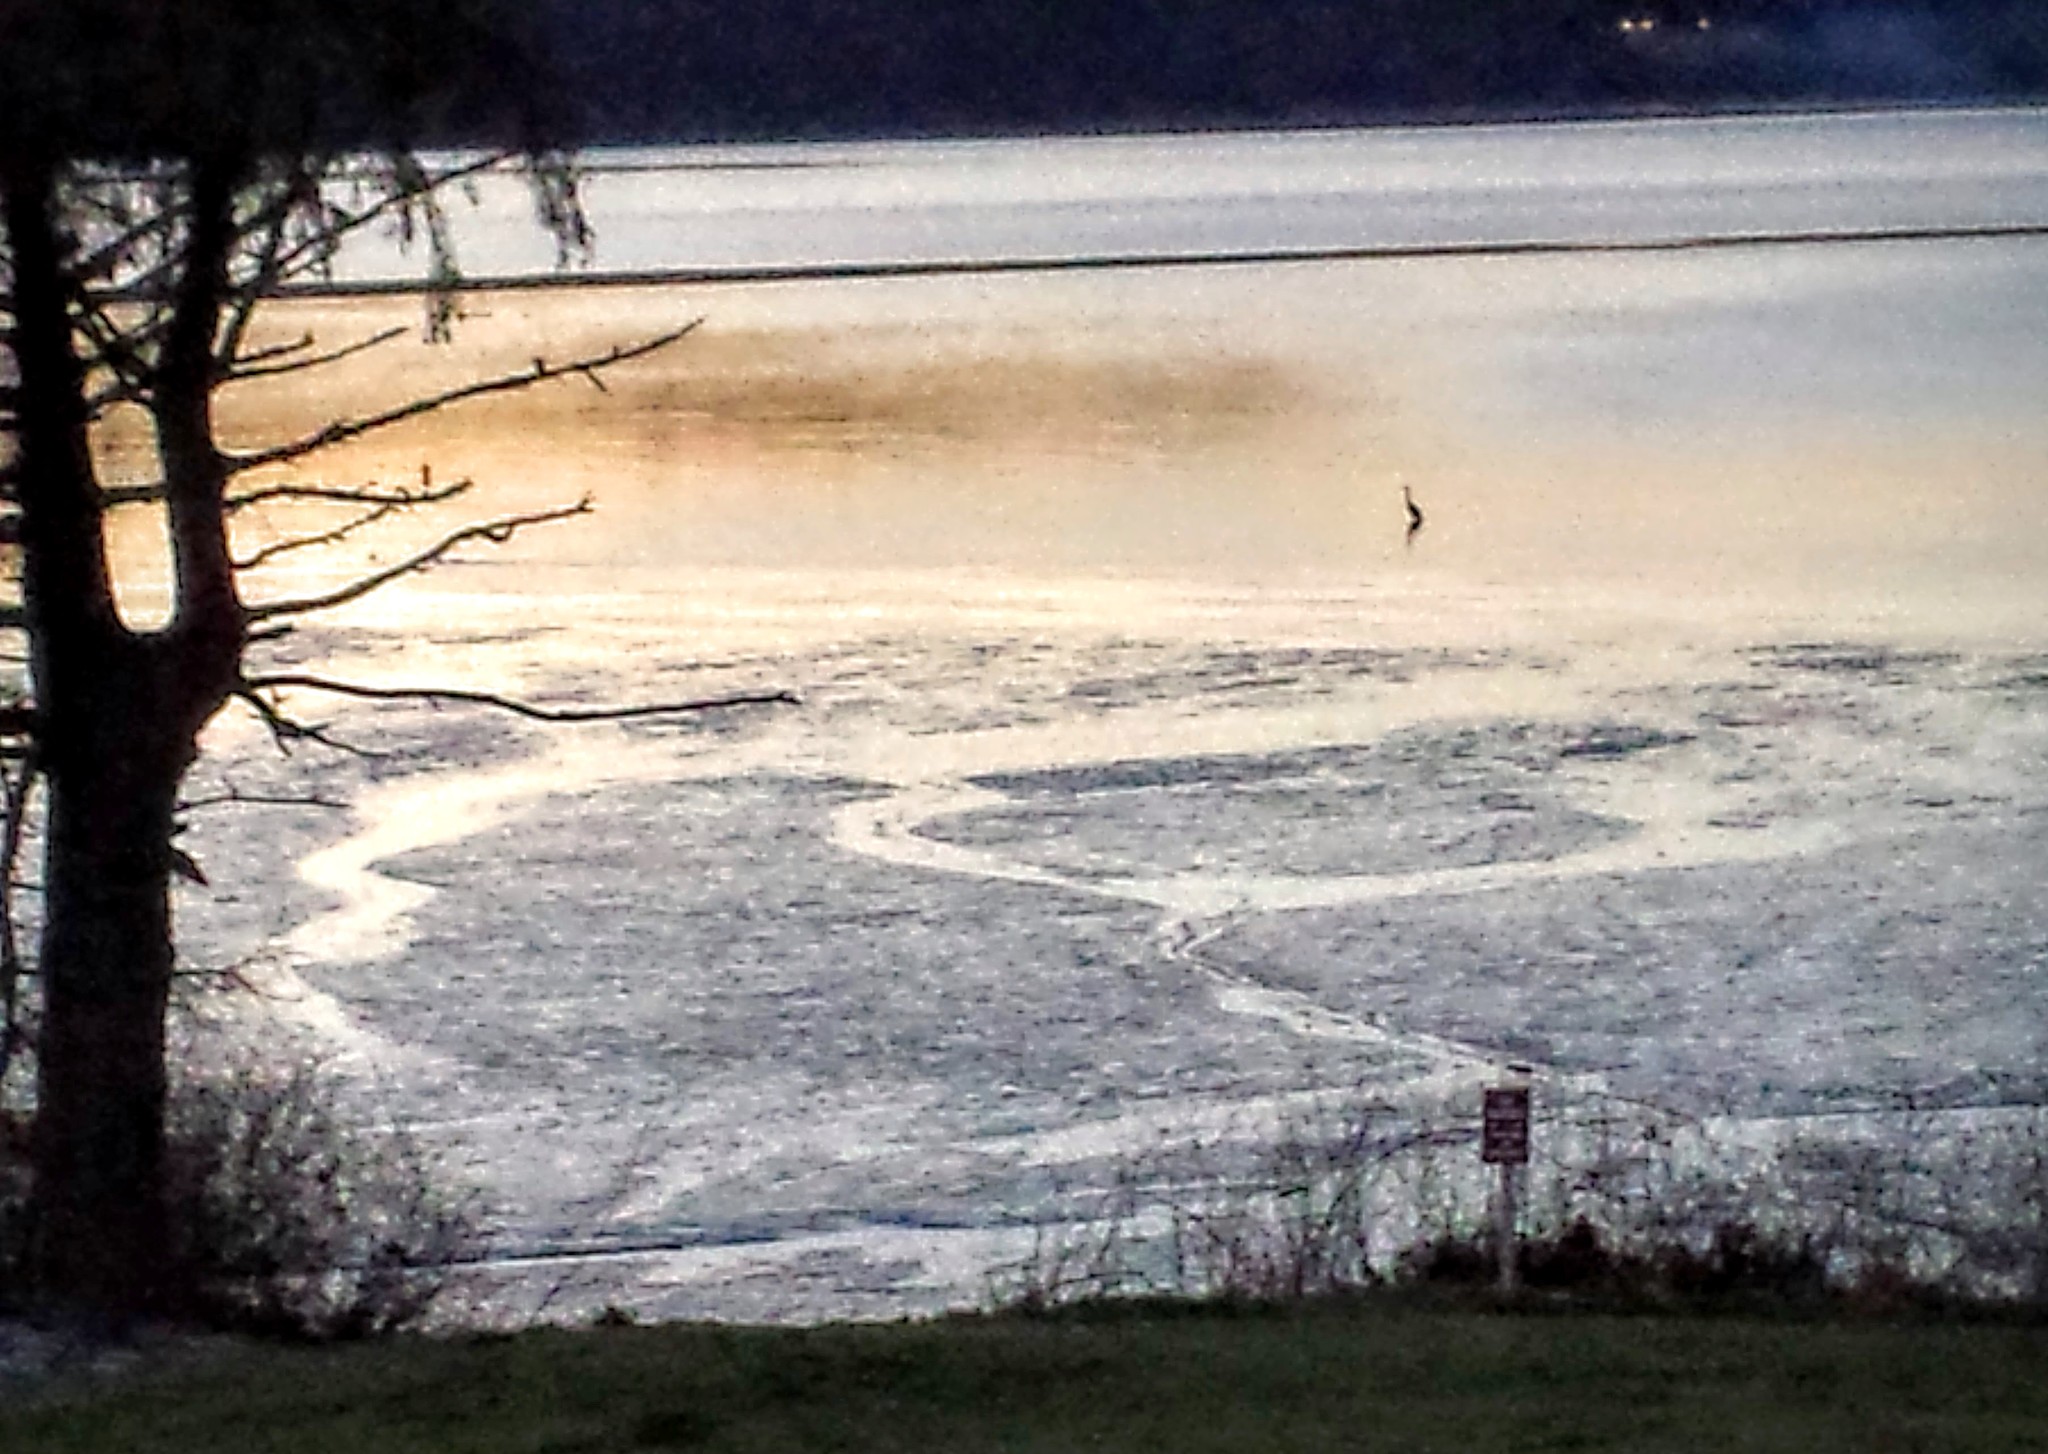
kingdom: Animalia
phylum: Chordata
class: Aves
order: Pelecaniformes
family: Ardeidae
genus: Ardea
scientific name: Ardea herodias
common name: Great blue heron
